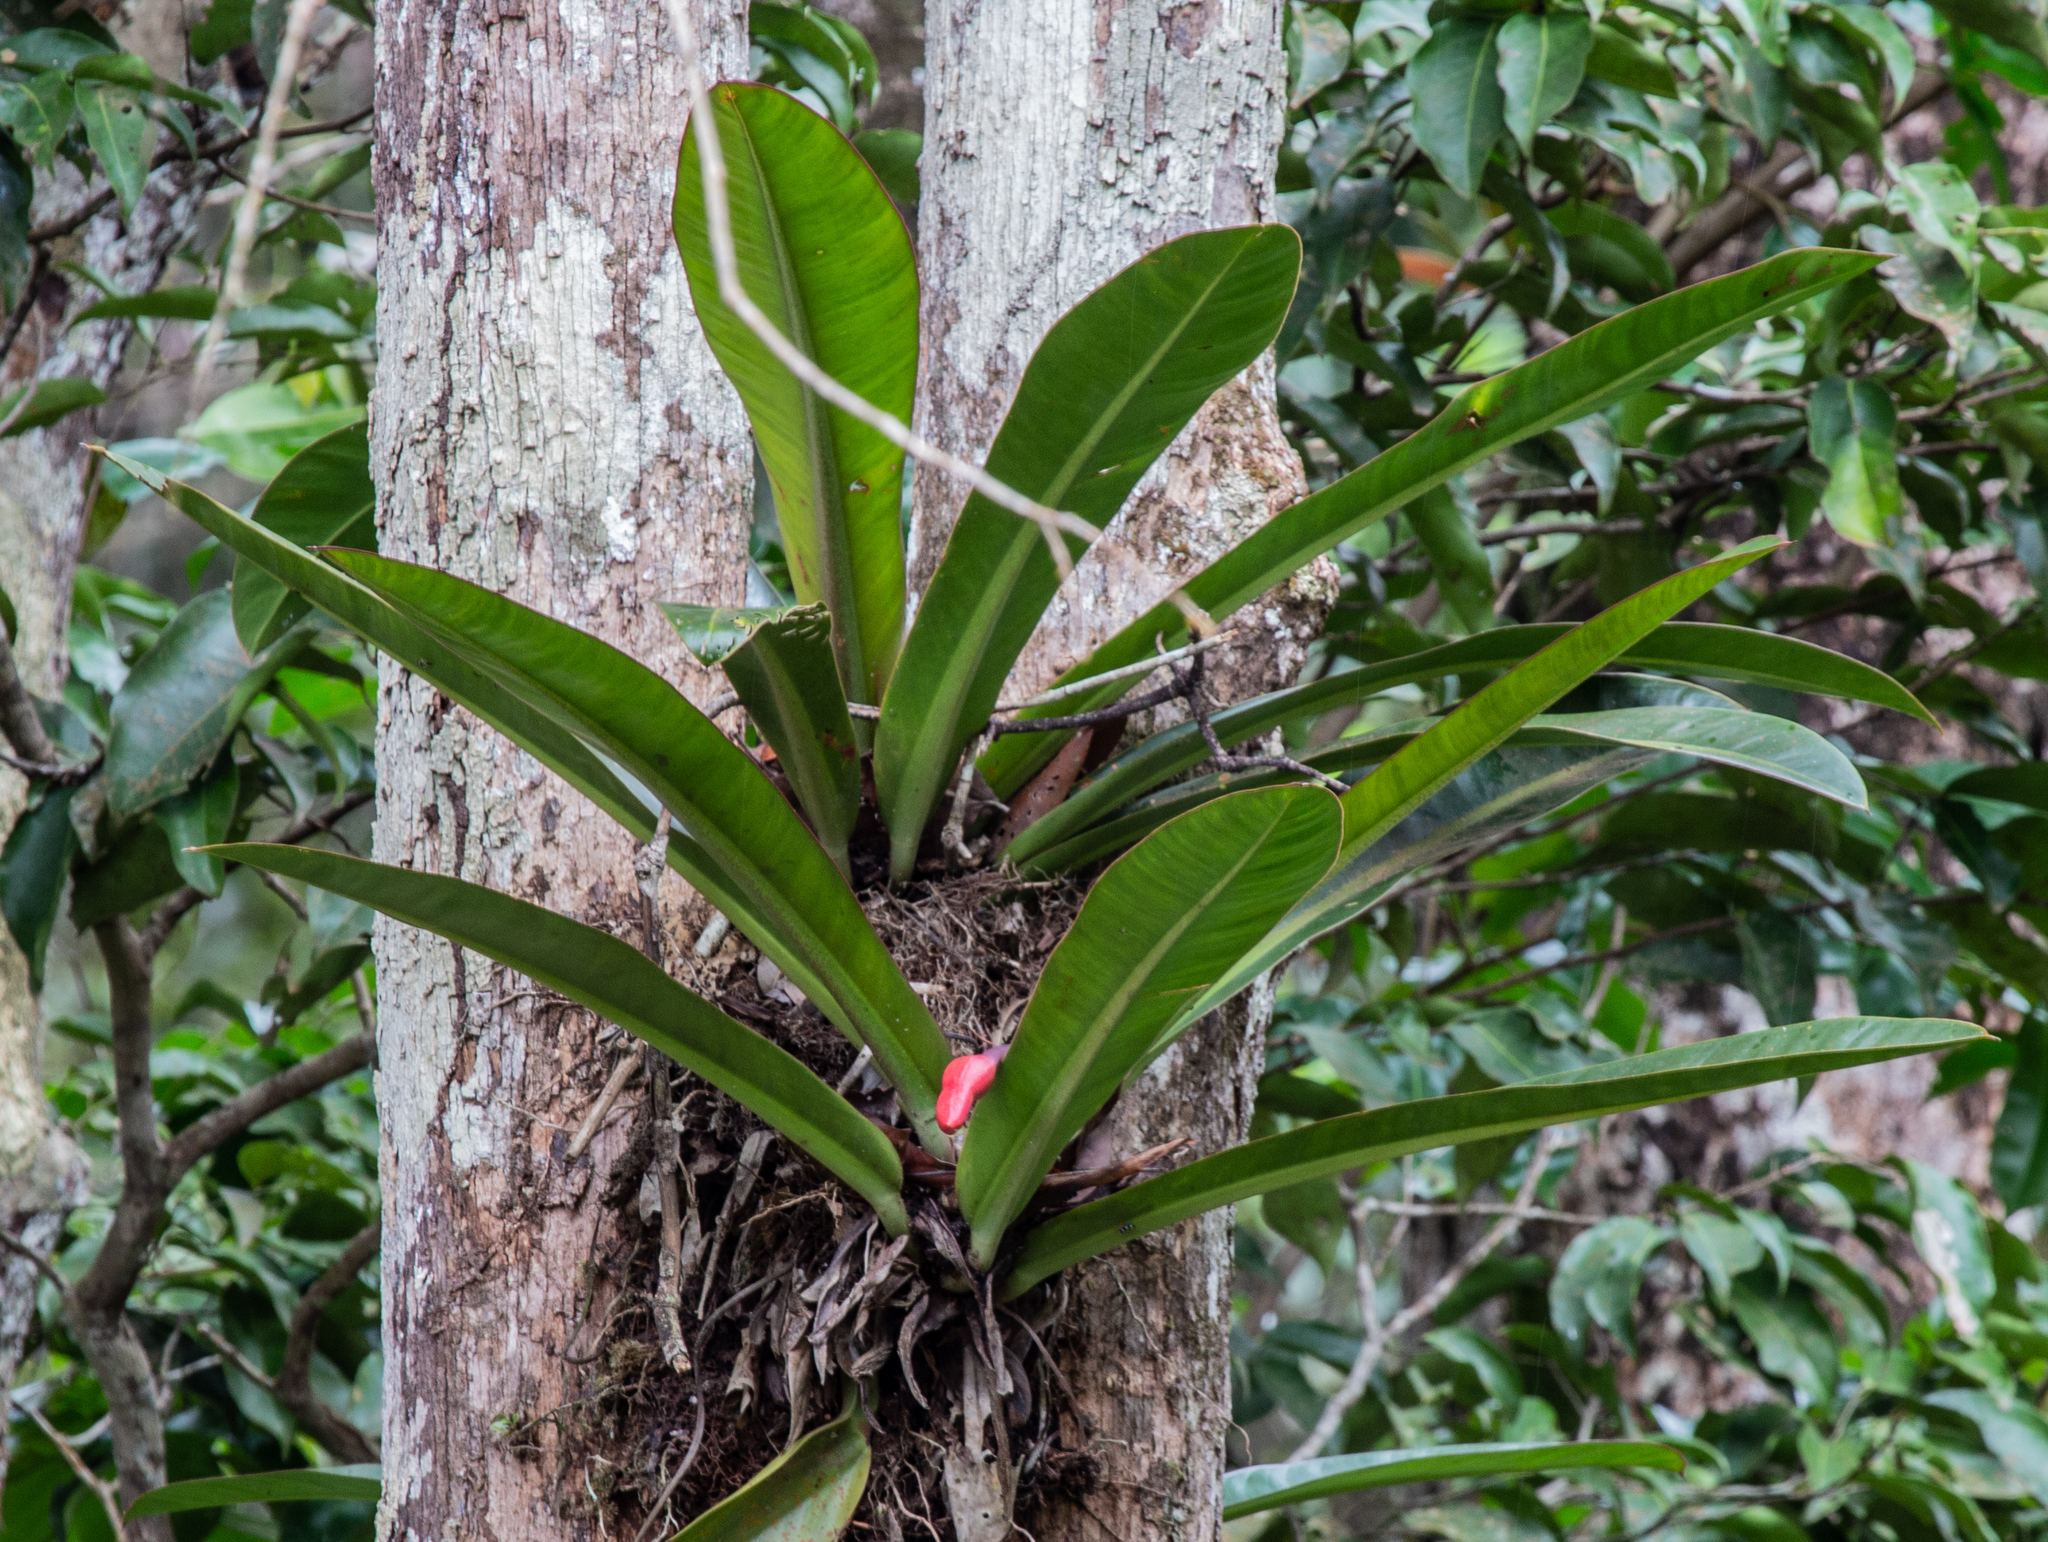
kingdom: Plantae
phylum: Tracheophyta
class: Liliopsida
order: Alismatales
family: Araceae
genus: Philodendron
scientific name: Philodendron insigne
